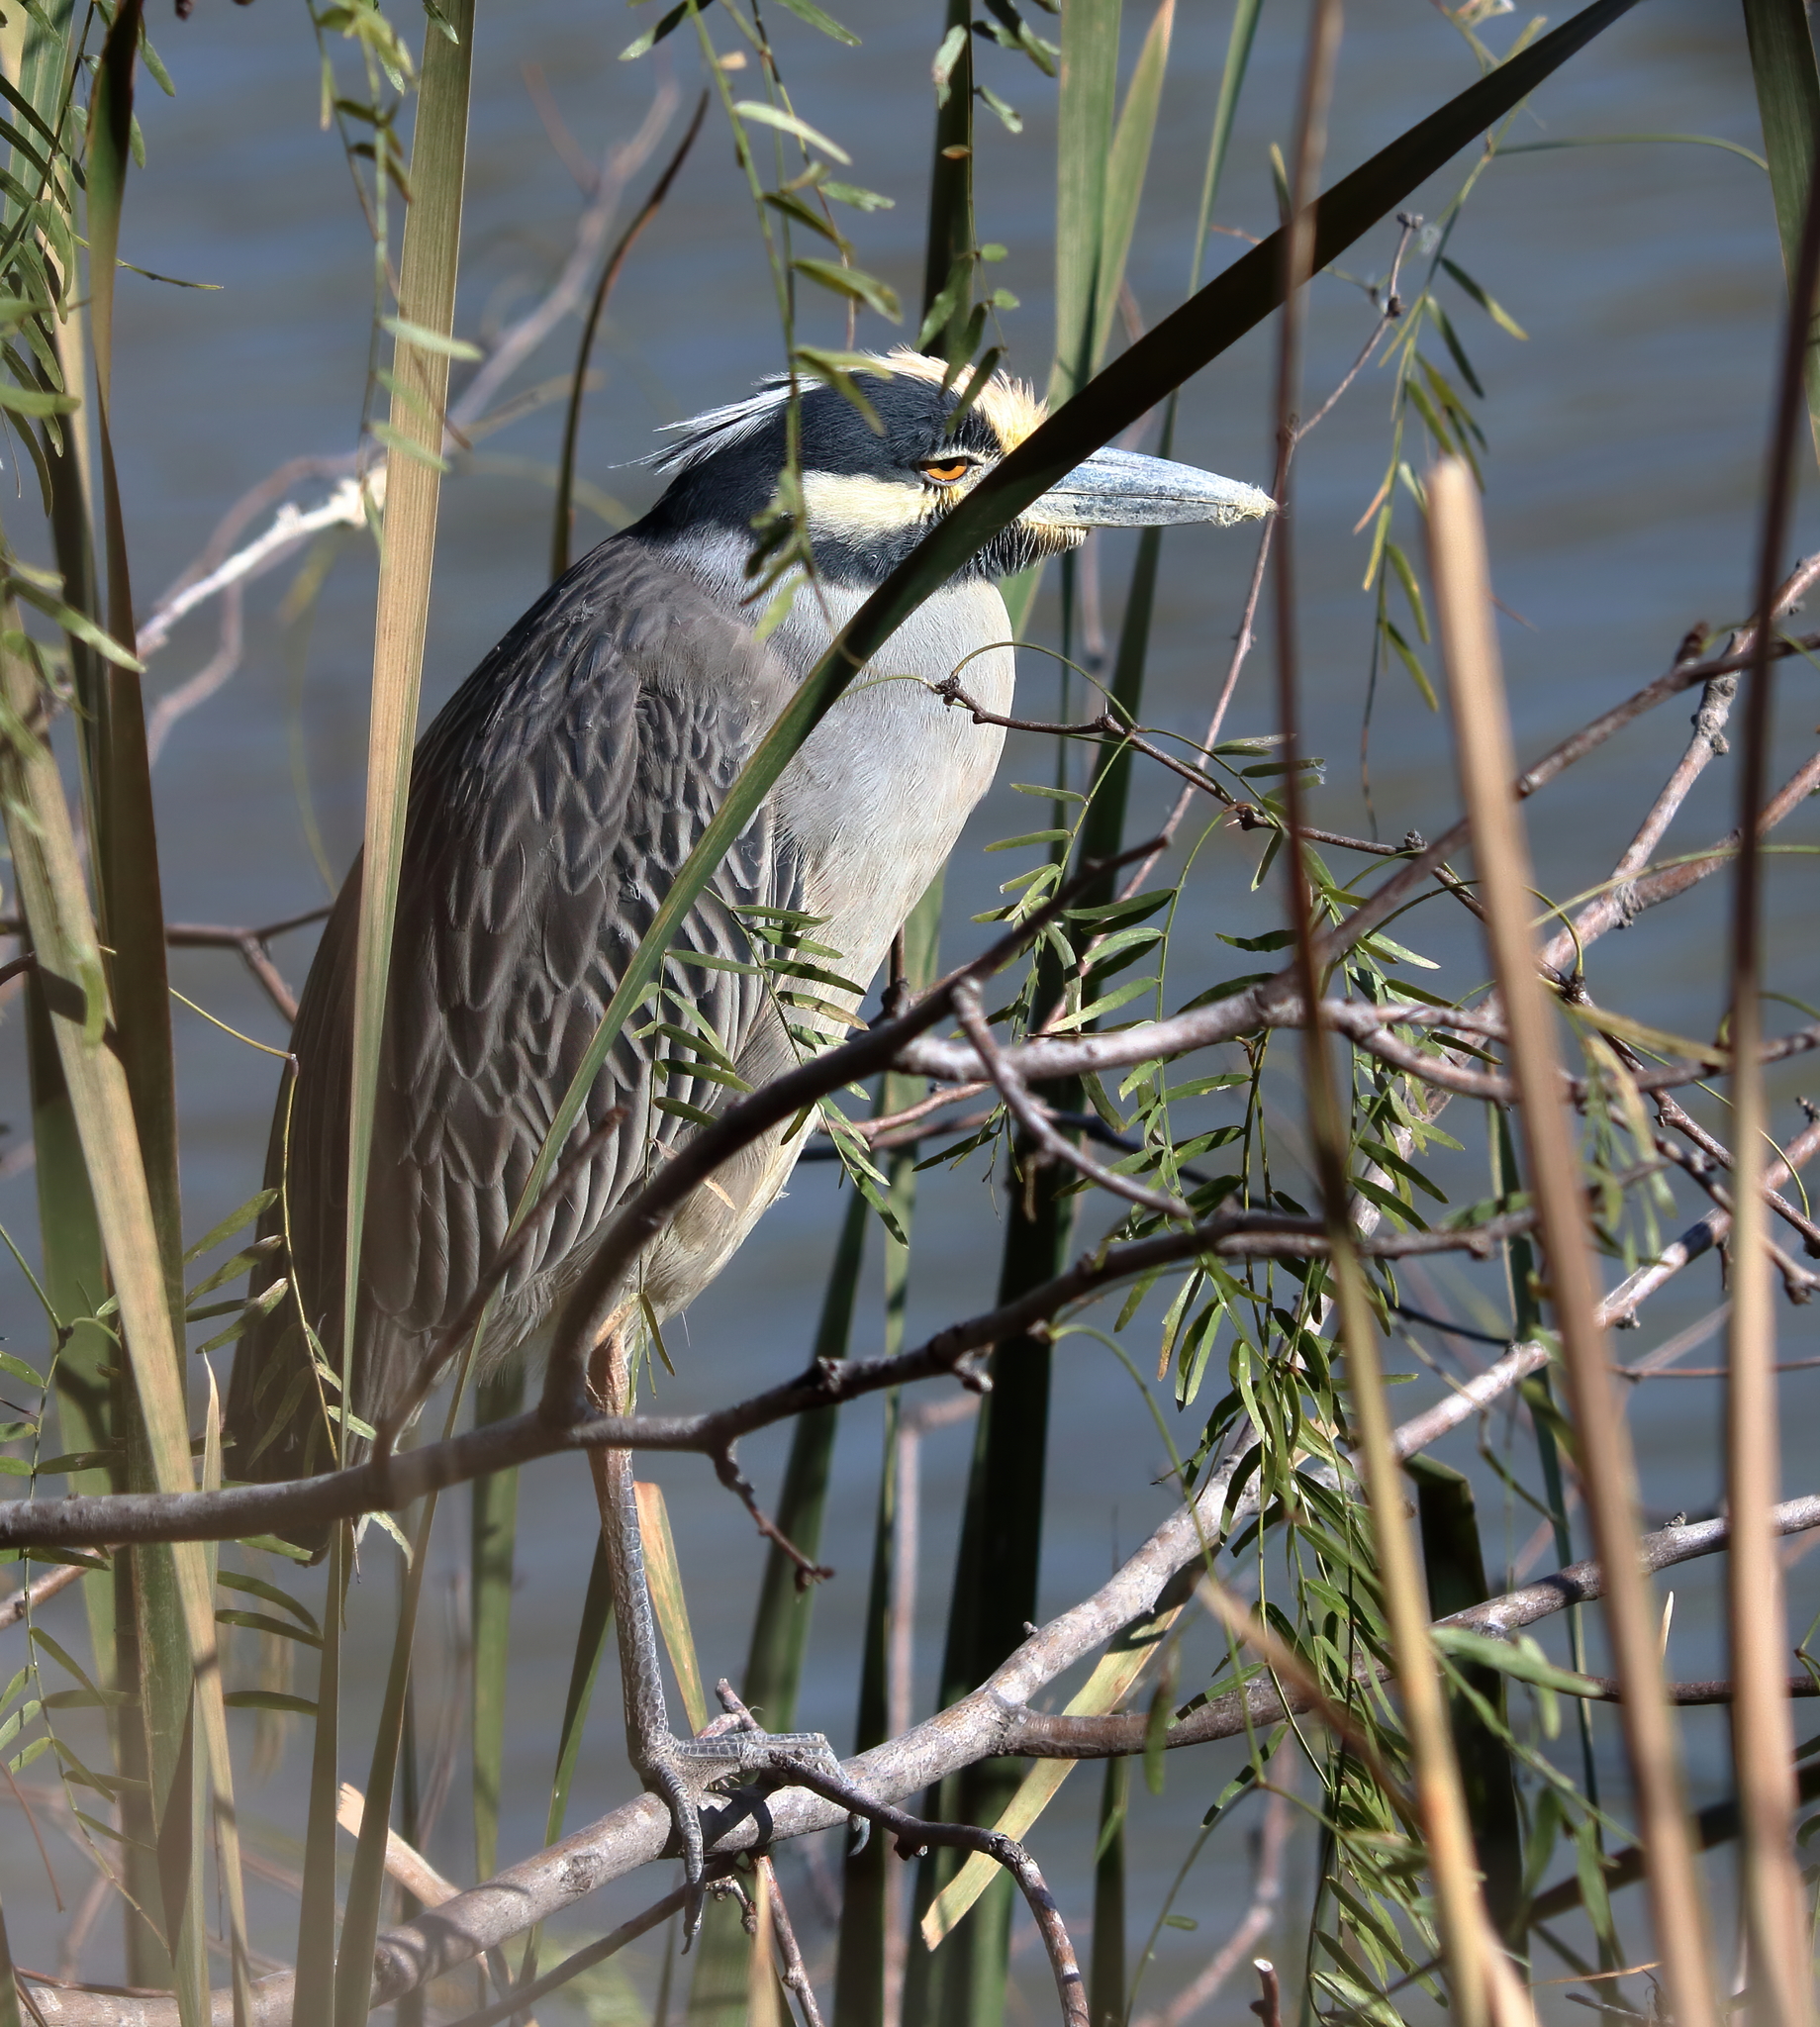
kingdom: Animalia
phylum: Chordata
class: Aves
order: Pelecaniformes
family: Ardeidae
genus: Nyctanassa
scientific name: Nyctanassa violacea
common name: Yellow-crowned night heron
